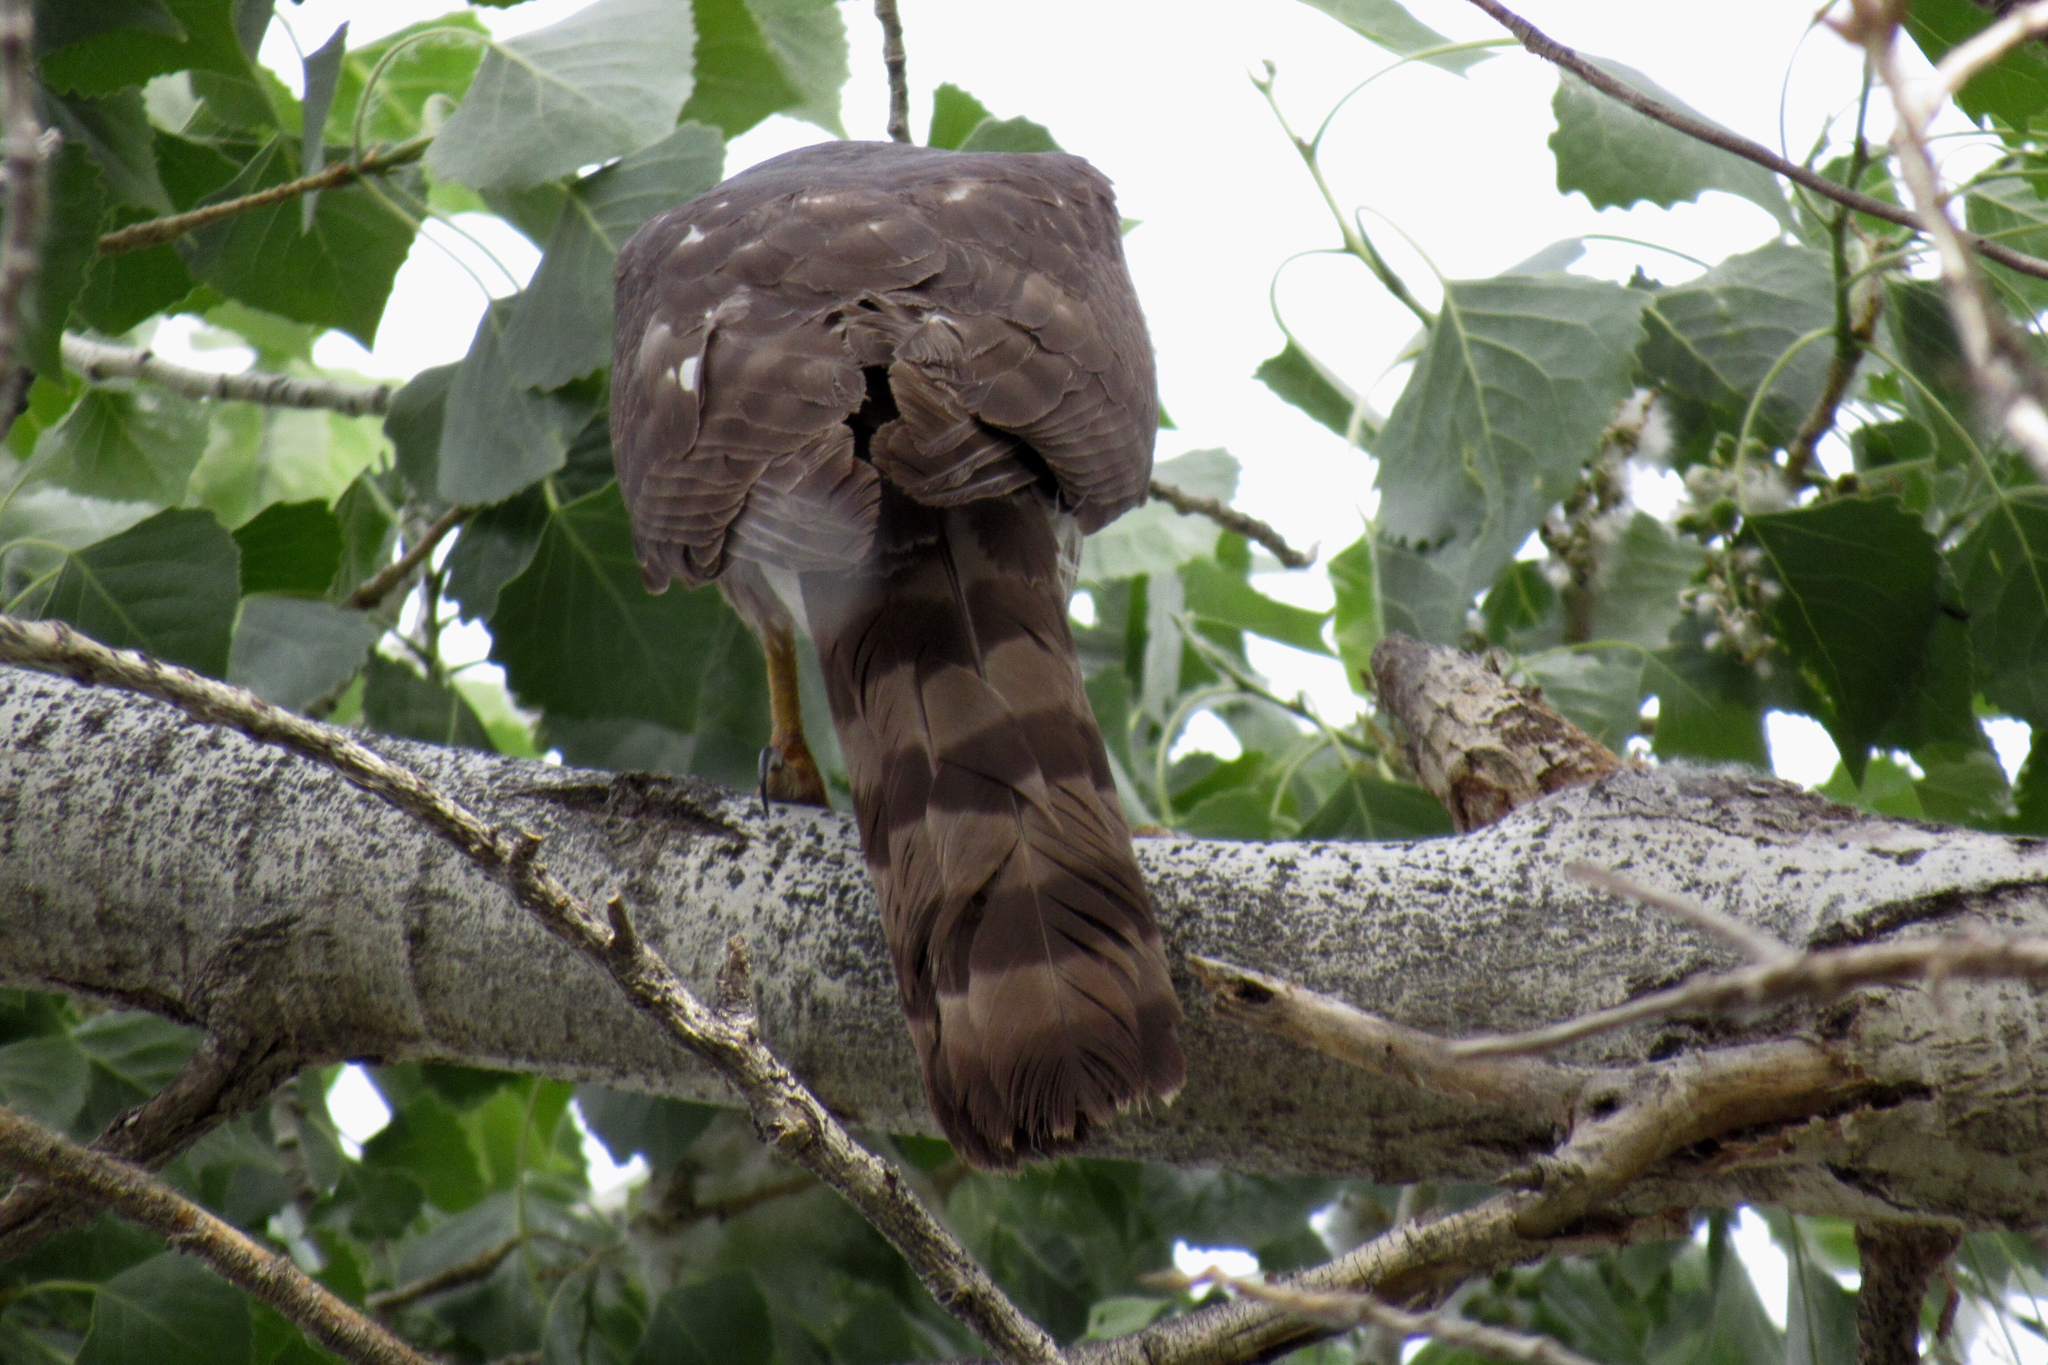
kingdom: Animalia
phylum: Chordata
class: Aves
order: Accipitriformes
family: Accipitridae
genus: Accipiter
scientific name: Accipiter cooperii
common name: Cooper's hawk
